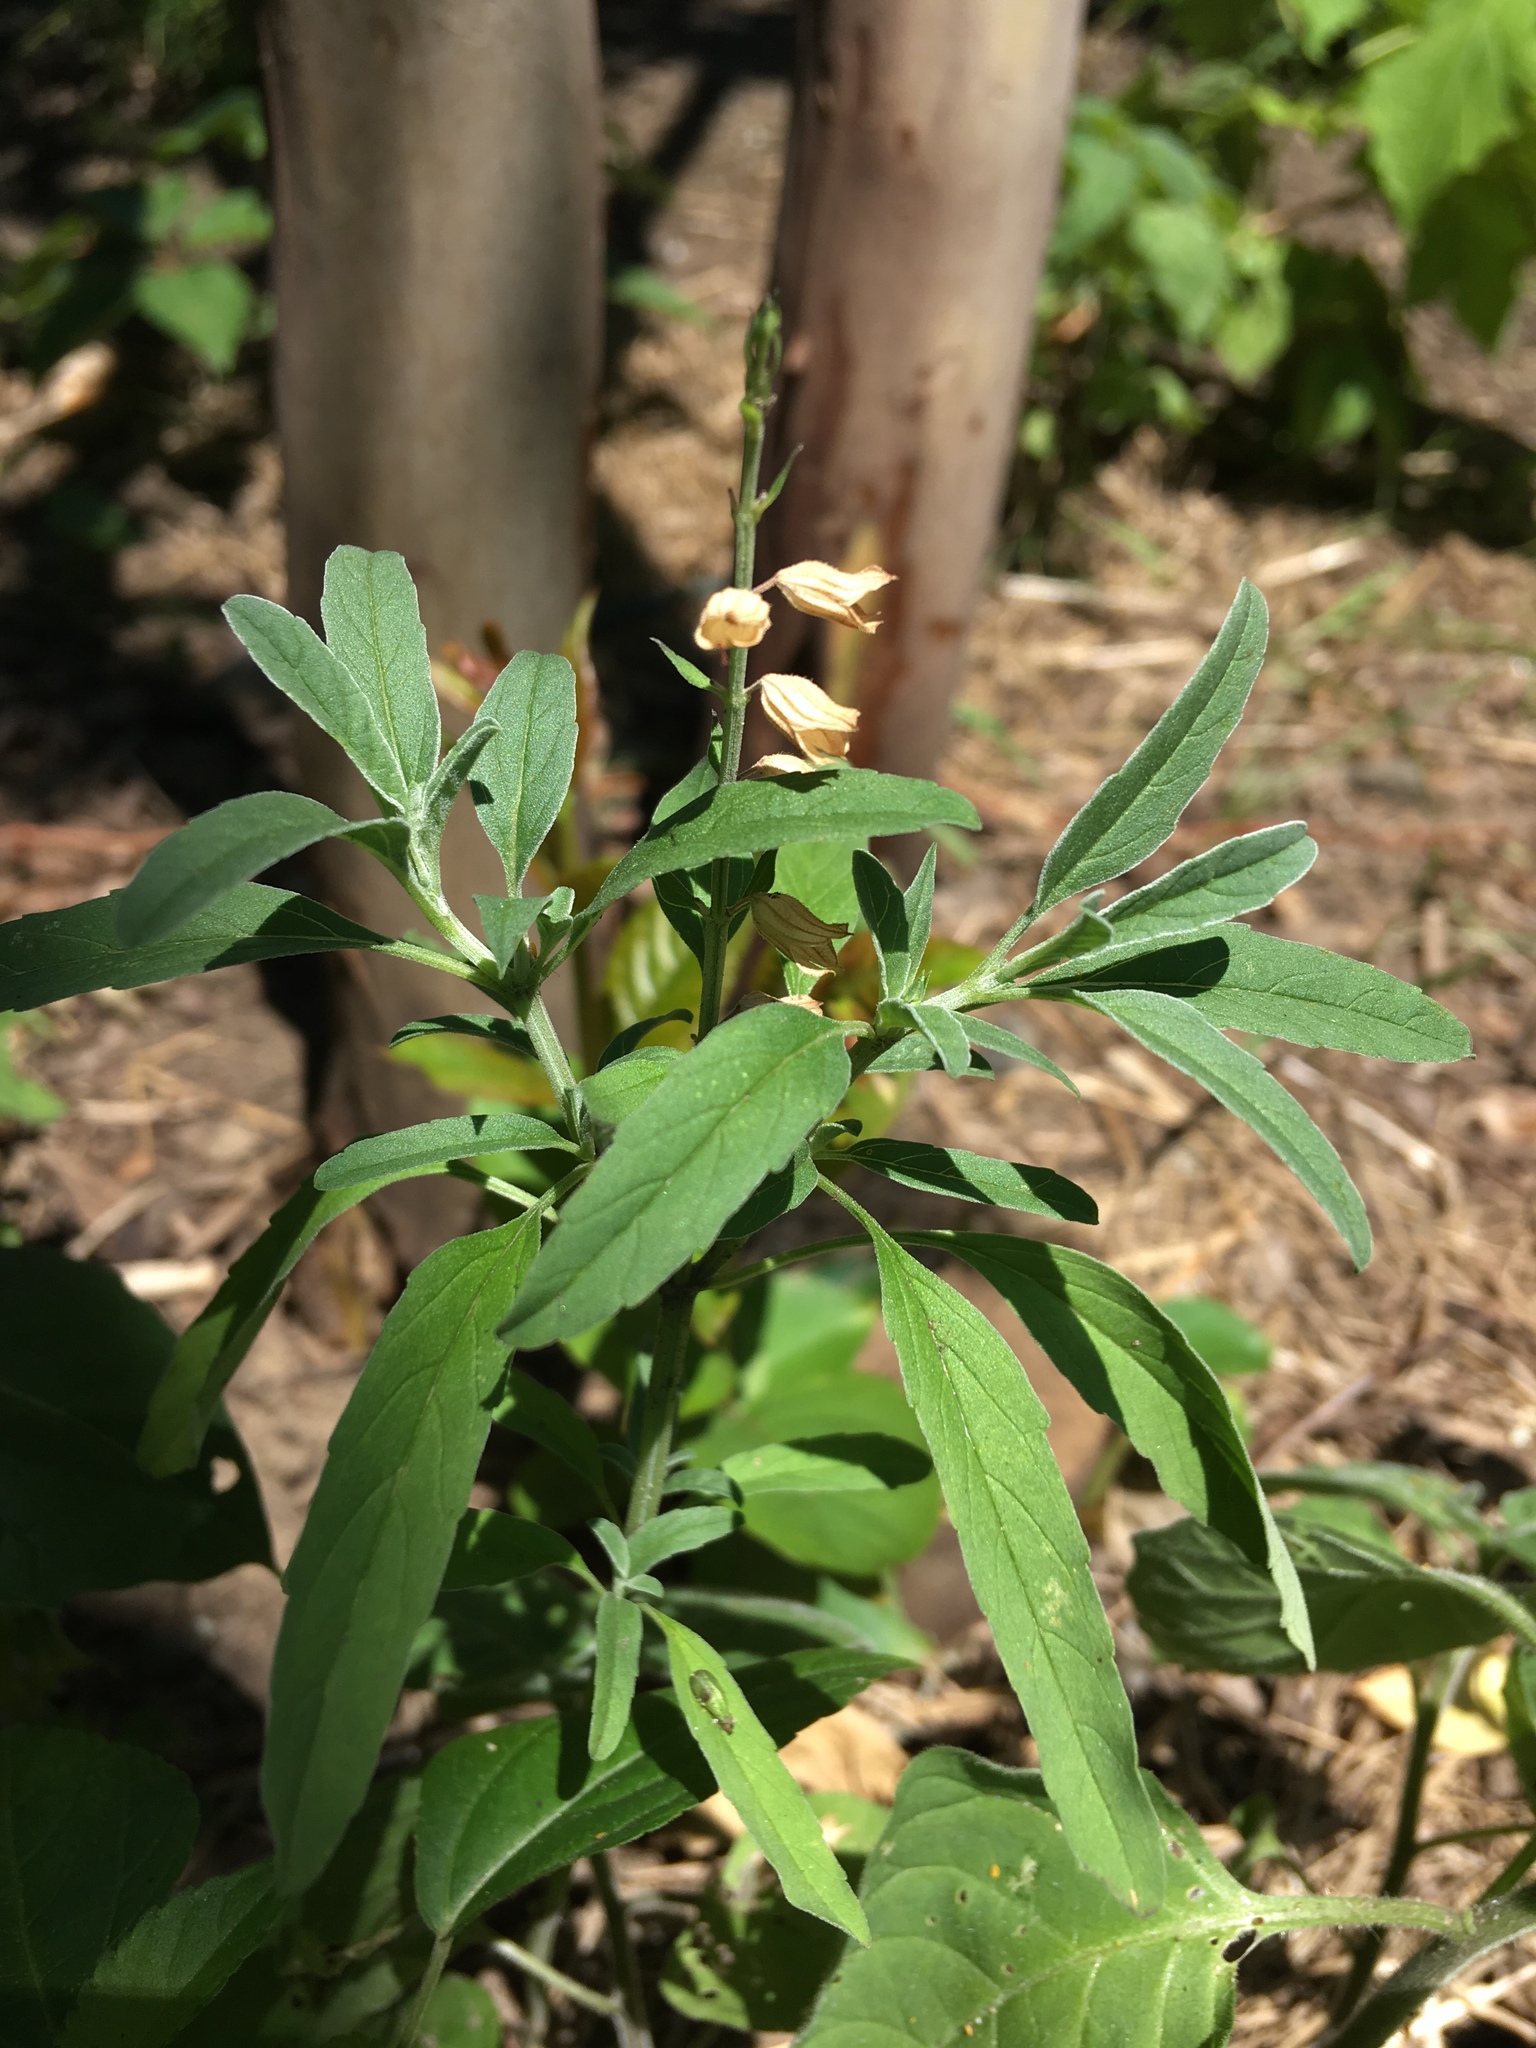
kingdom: Plantae
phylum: Tracheophyta
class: Magnoliopsida
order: Lamiales
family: Lamiaceae
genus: Salvia
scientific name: Salvia reflexa
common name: Mintweed
